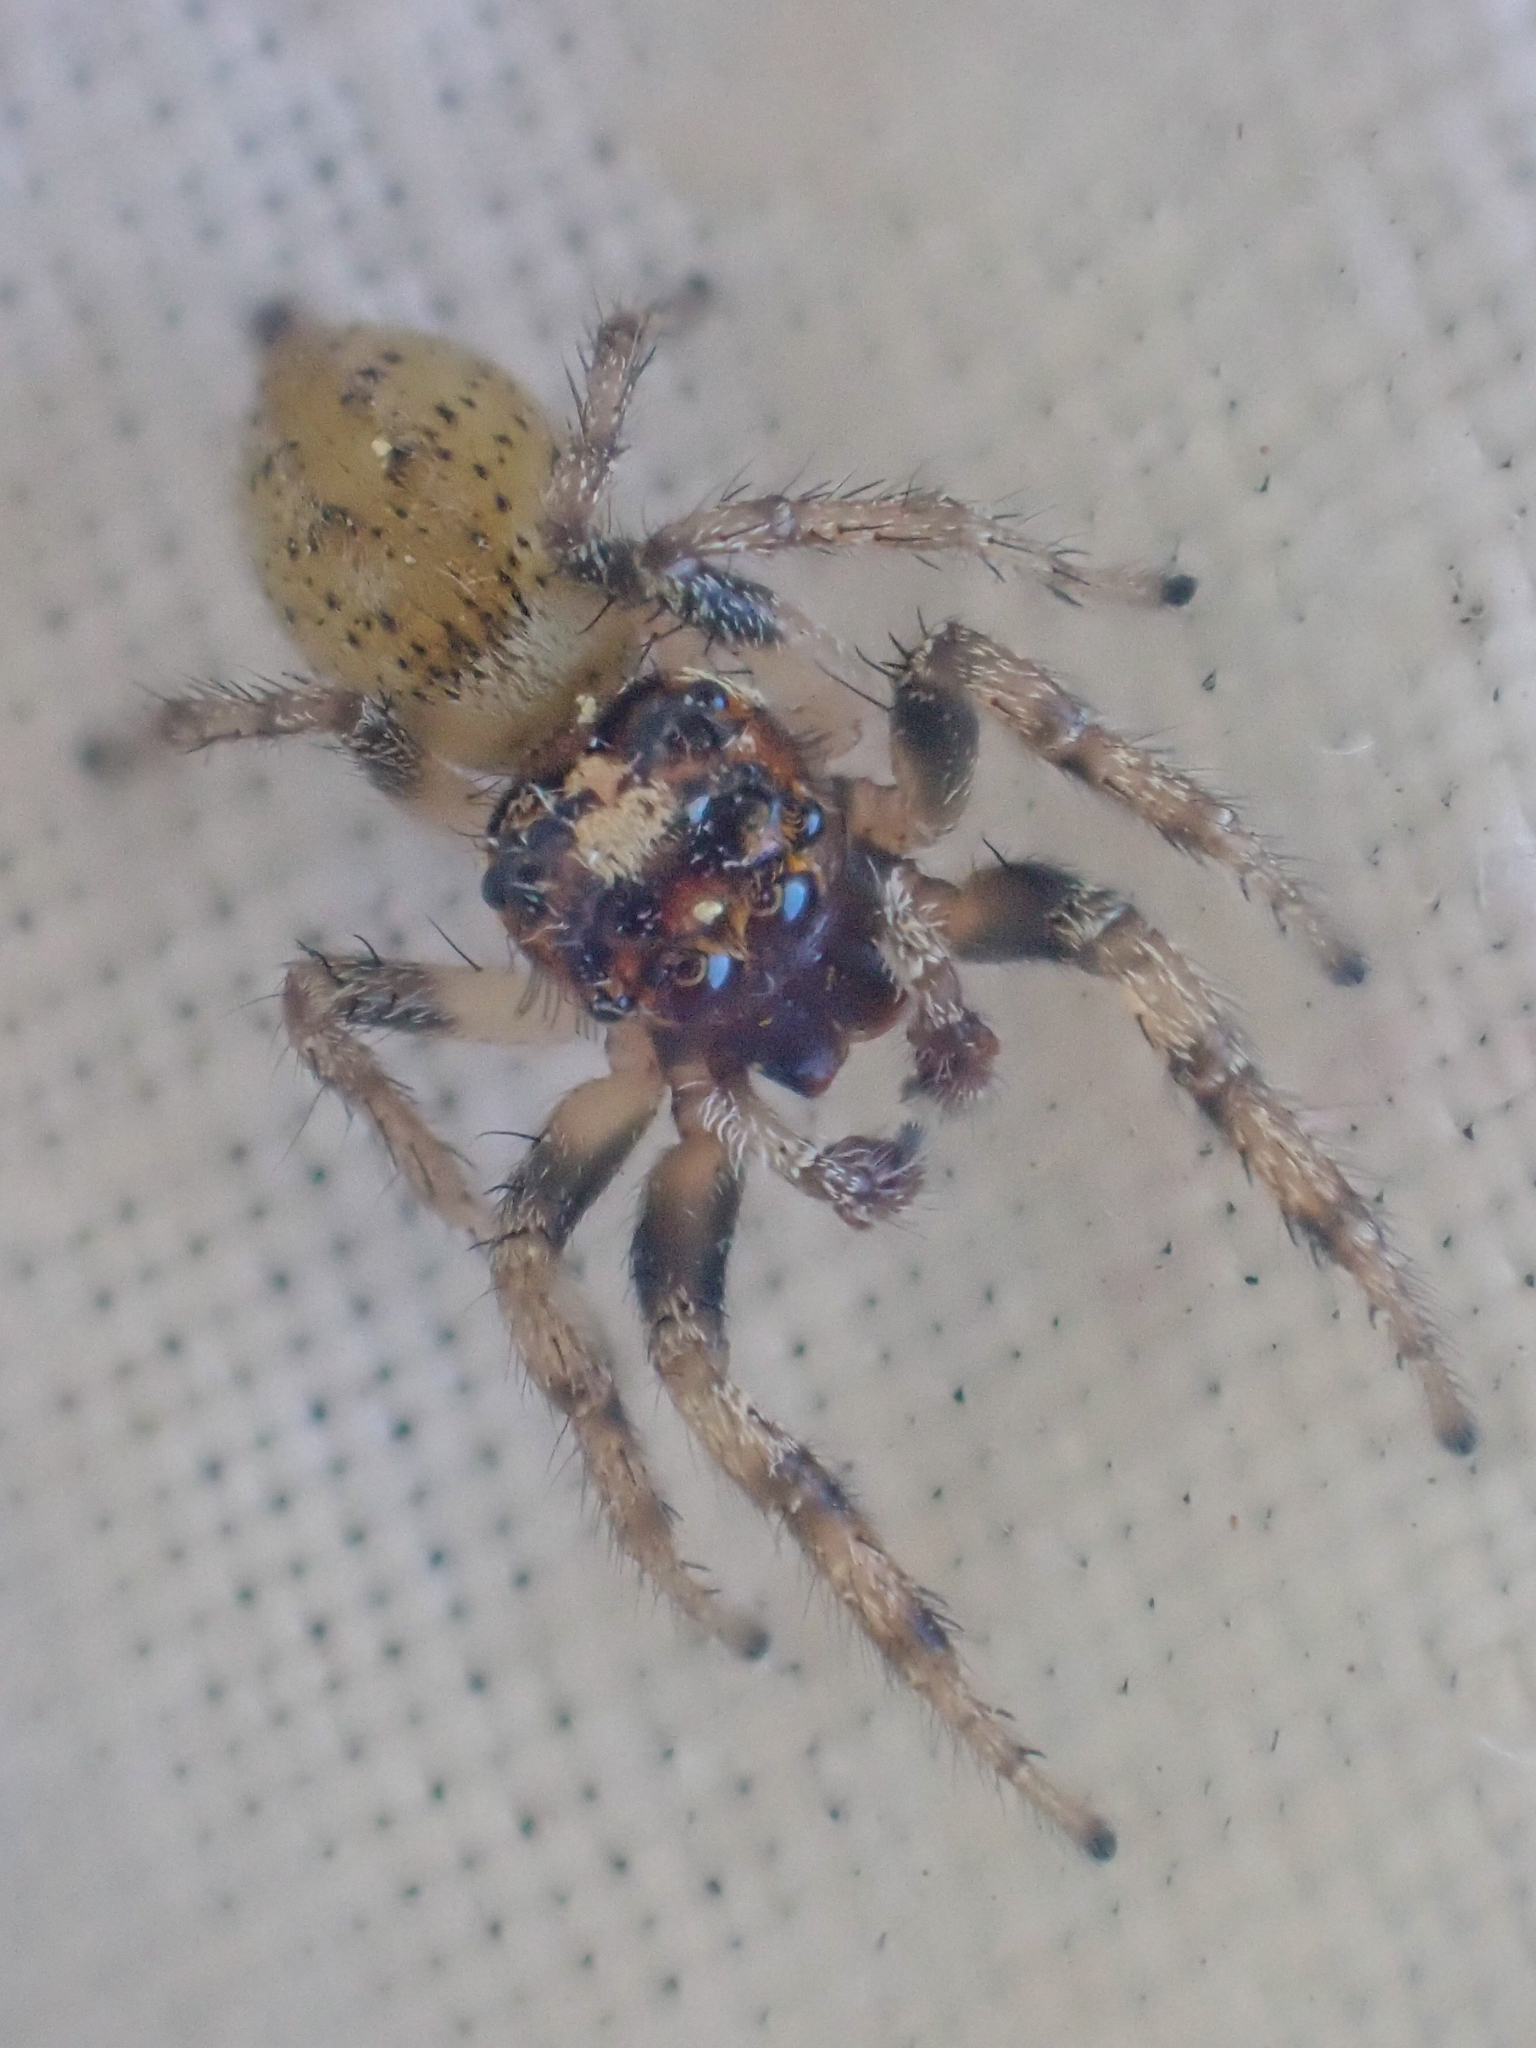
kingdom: Animalia
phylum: Arthropoda
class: Arachnida
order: Araneae
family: Salticidae
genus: Colonus
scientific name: Colonus hesperus
